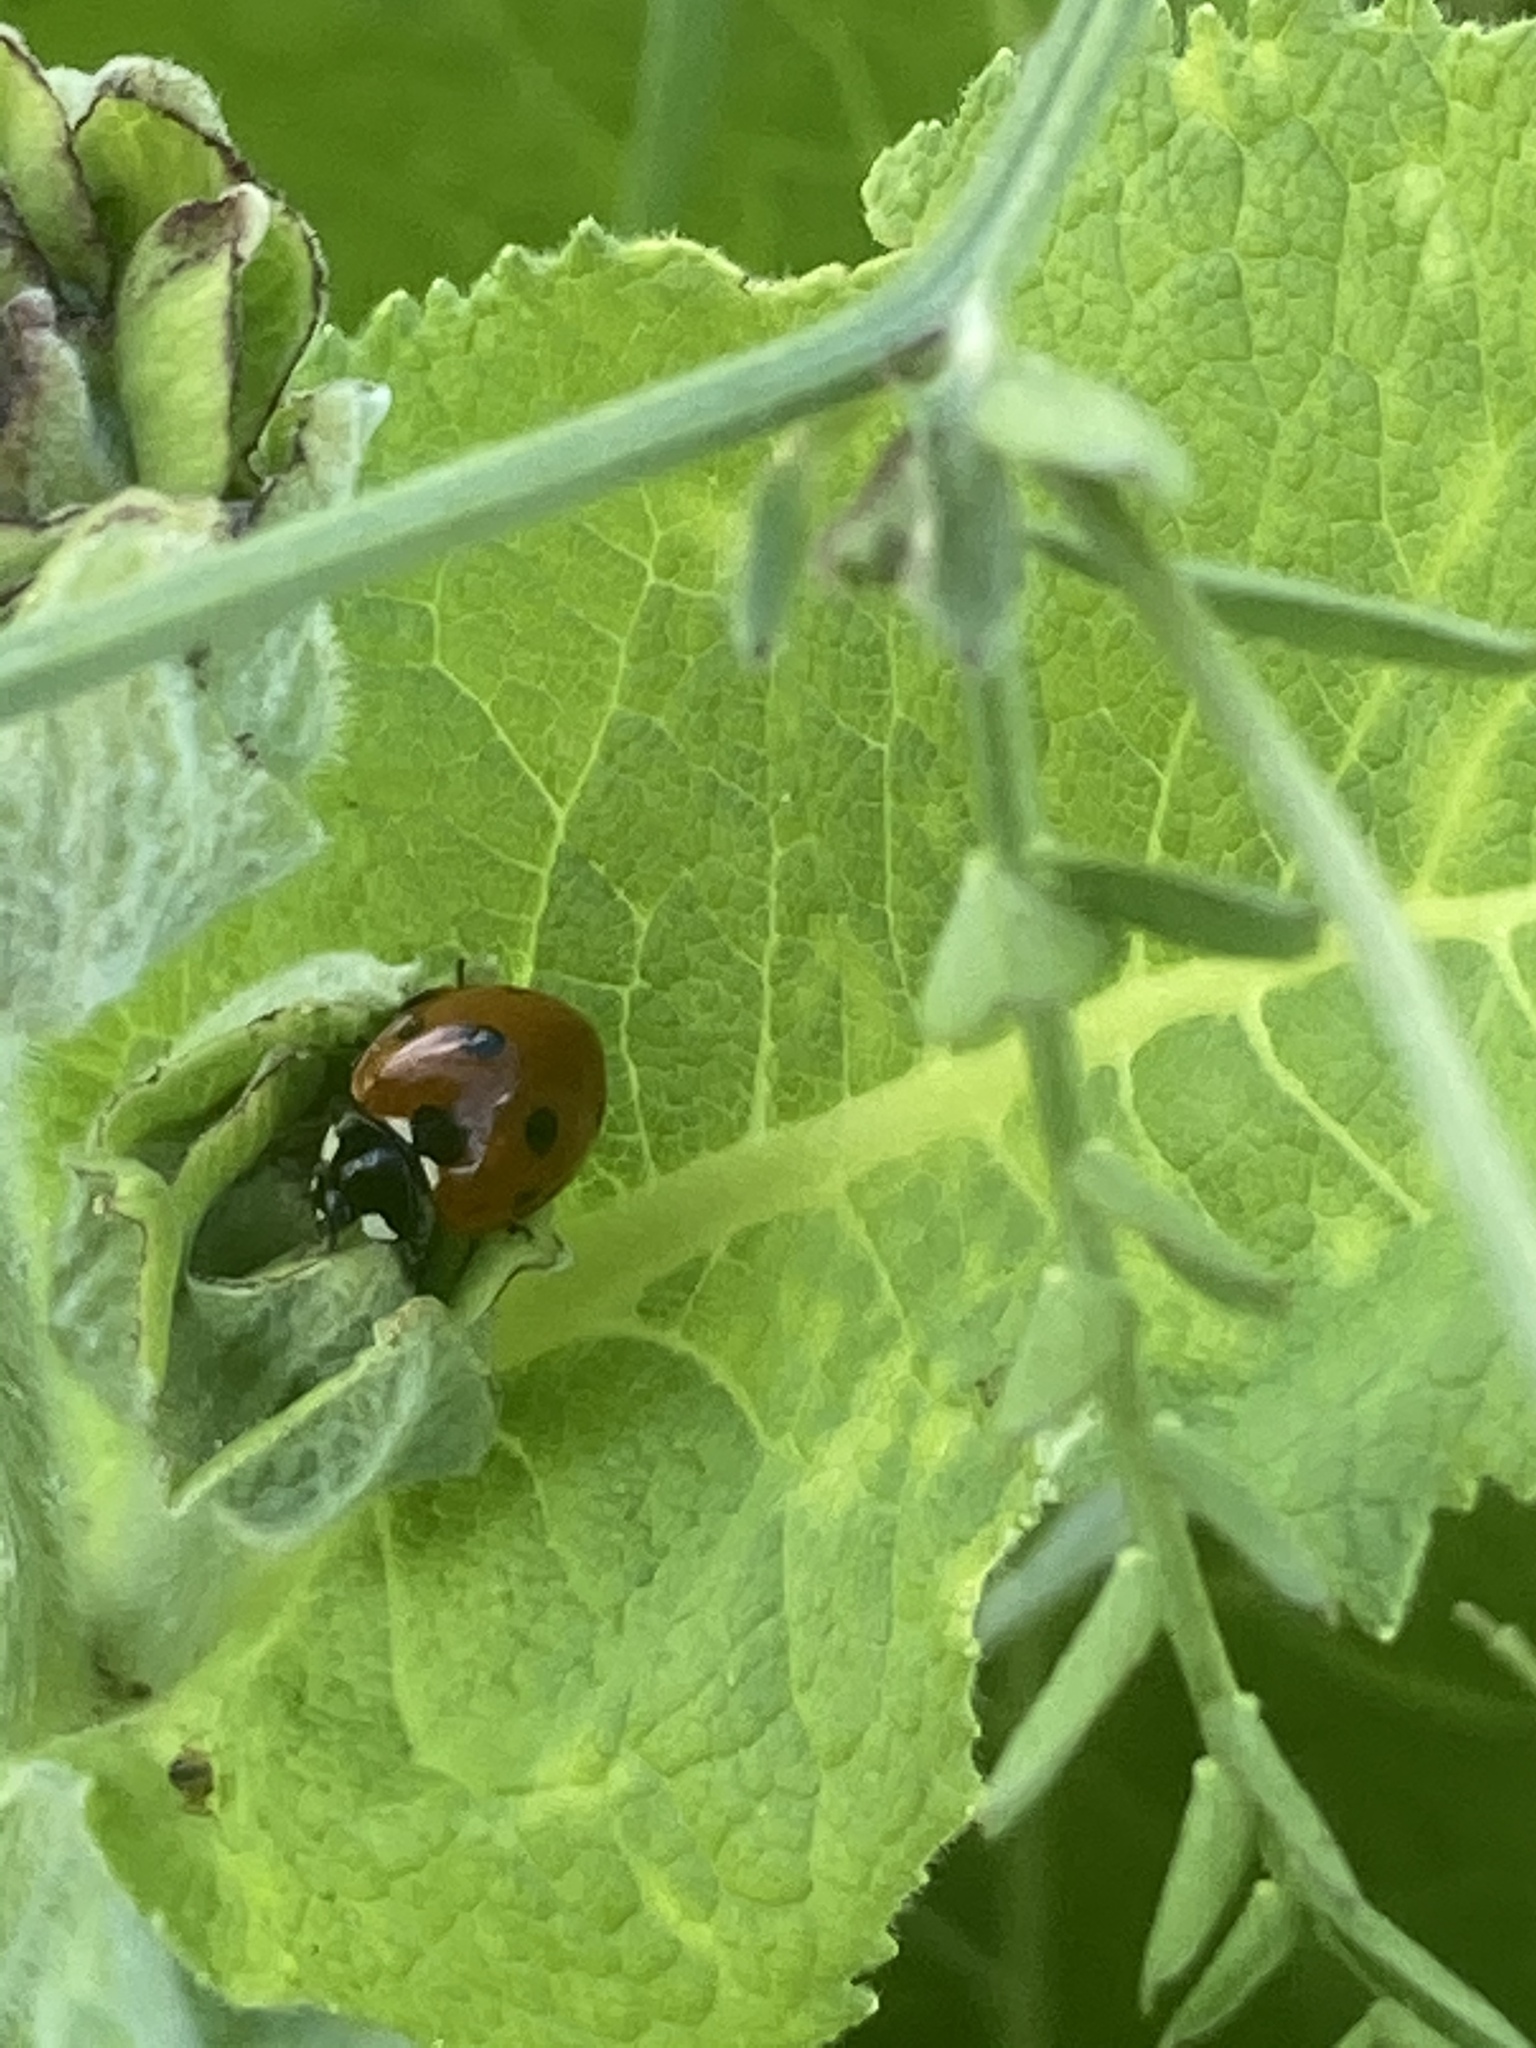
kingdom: Animalia
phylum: Arthropoda
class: Insecta
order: Coleoptera
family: Coccinellidae
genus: Coccinella
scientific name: Coccinella septempunctata
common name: Sevenspotted lady beetle
